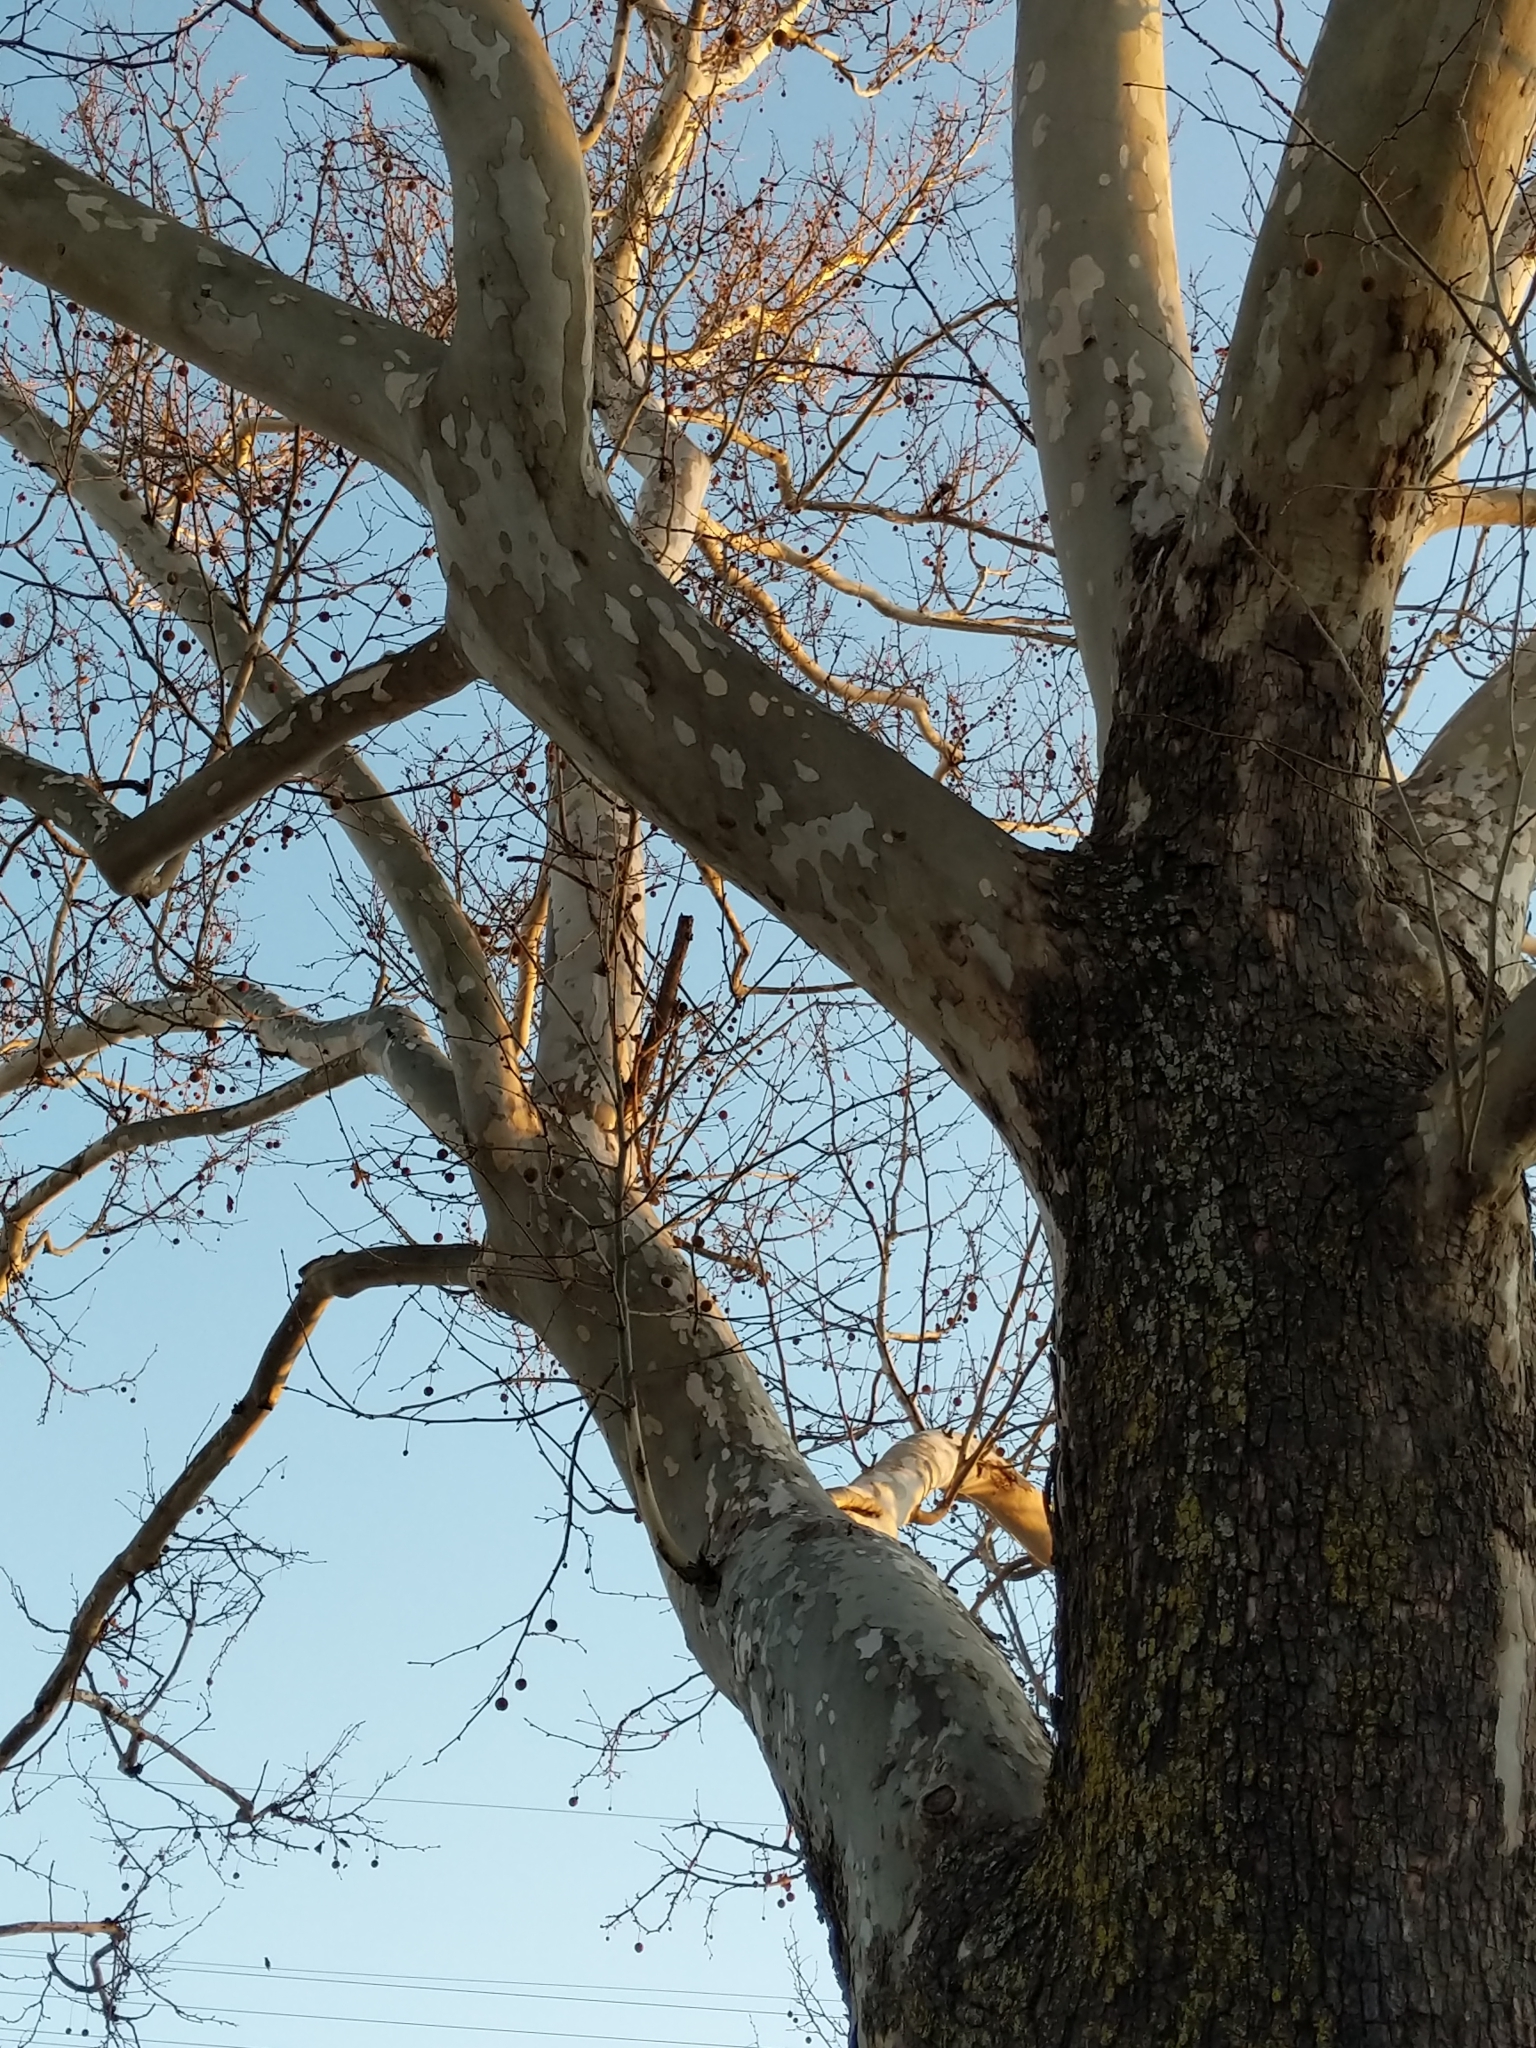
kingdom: Plantae
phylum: Tracheophyta
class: Magnoliopsida
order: Proteales
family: Platanaceae
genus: Platanus
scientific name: Platanus occidentalis
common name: American sycamore
